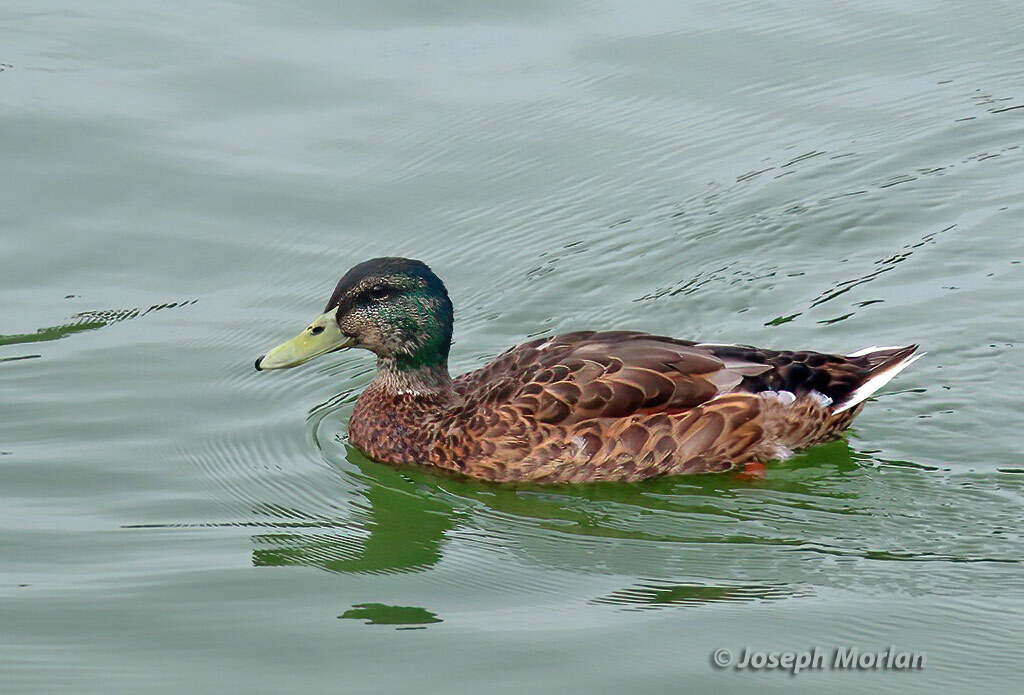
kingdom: Animalia
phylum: Chordata
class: Aves
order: Anseriformes
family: Anatidae
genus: Anas
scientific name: Anas platyrhynchos
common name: Mallard
